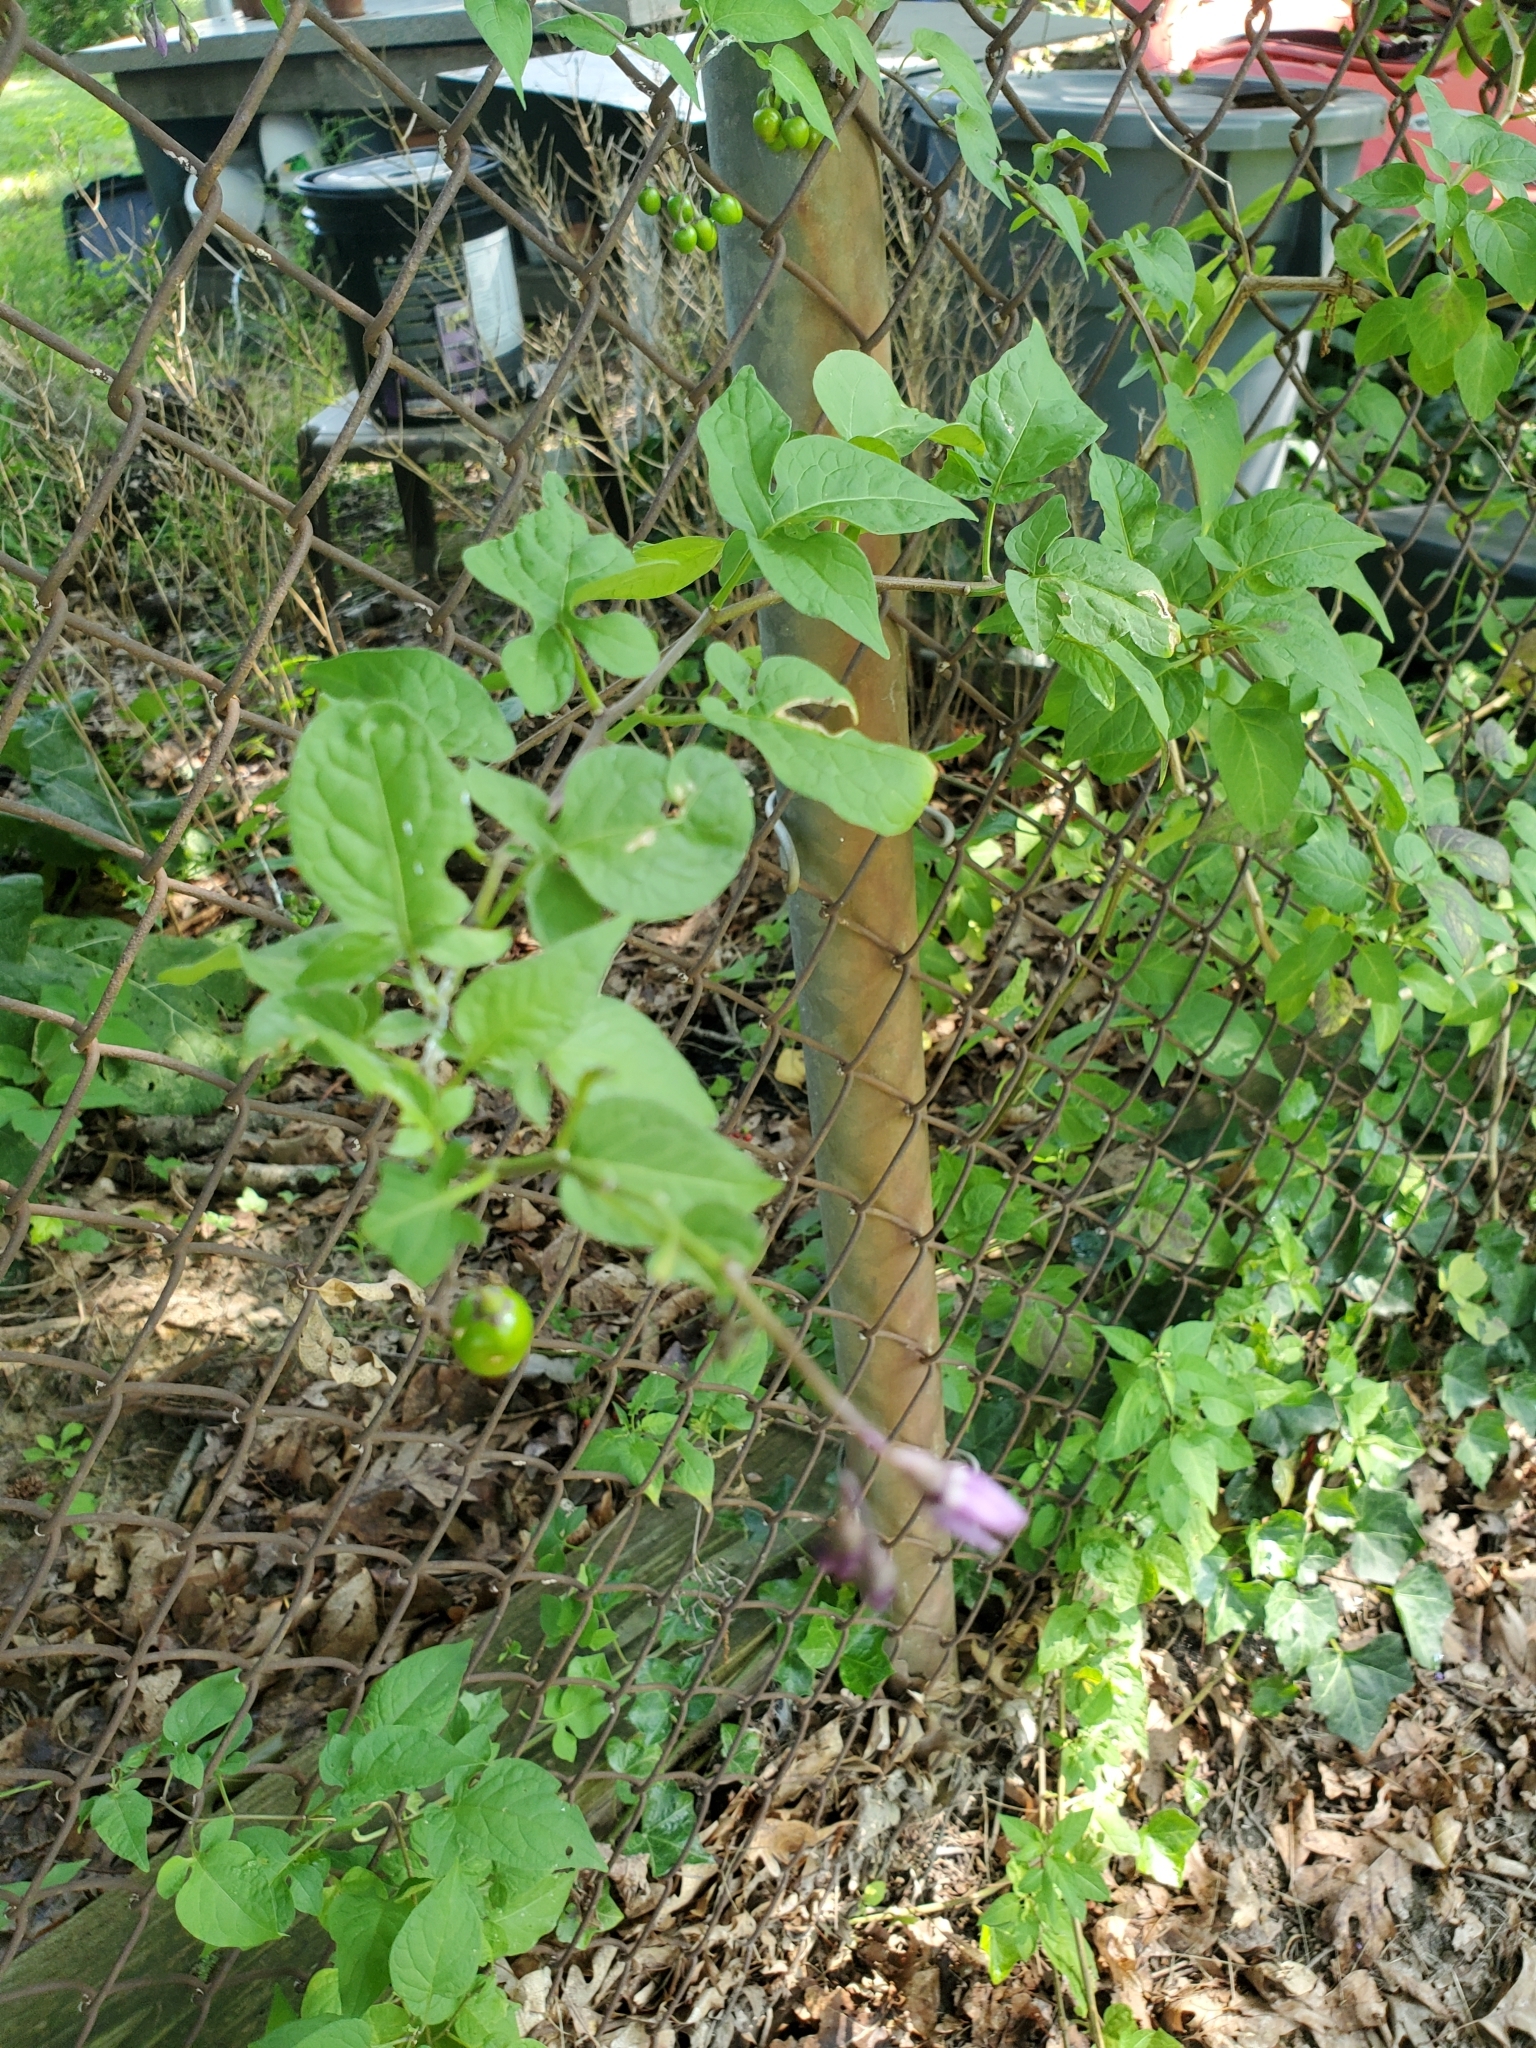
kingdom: Plantae
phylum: Tracheophyta
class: Magnoliopsida
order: Solanales
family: Solanaceae
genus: Solanum
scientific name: Solanum dulcamara
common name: Climbing nightshade
